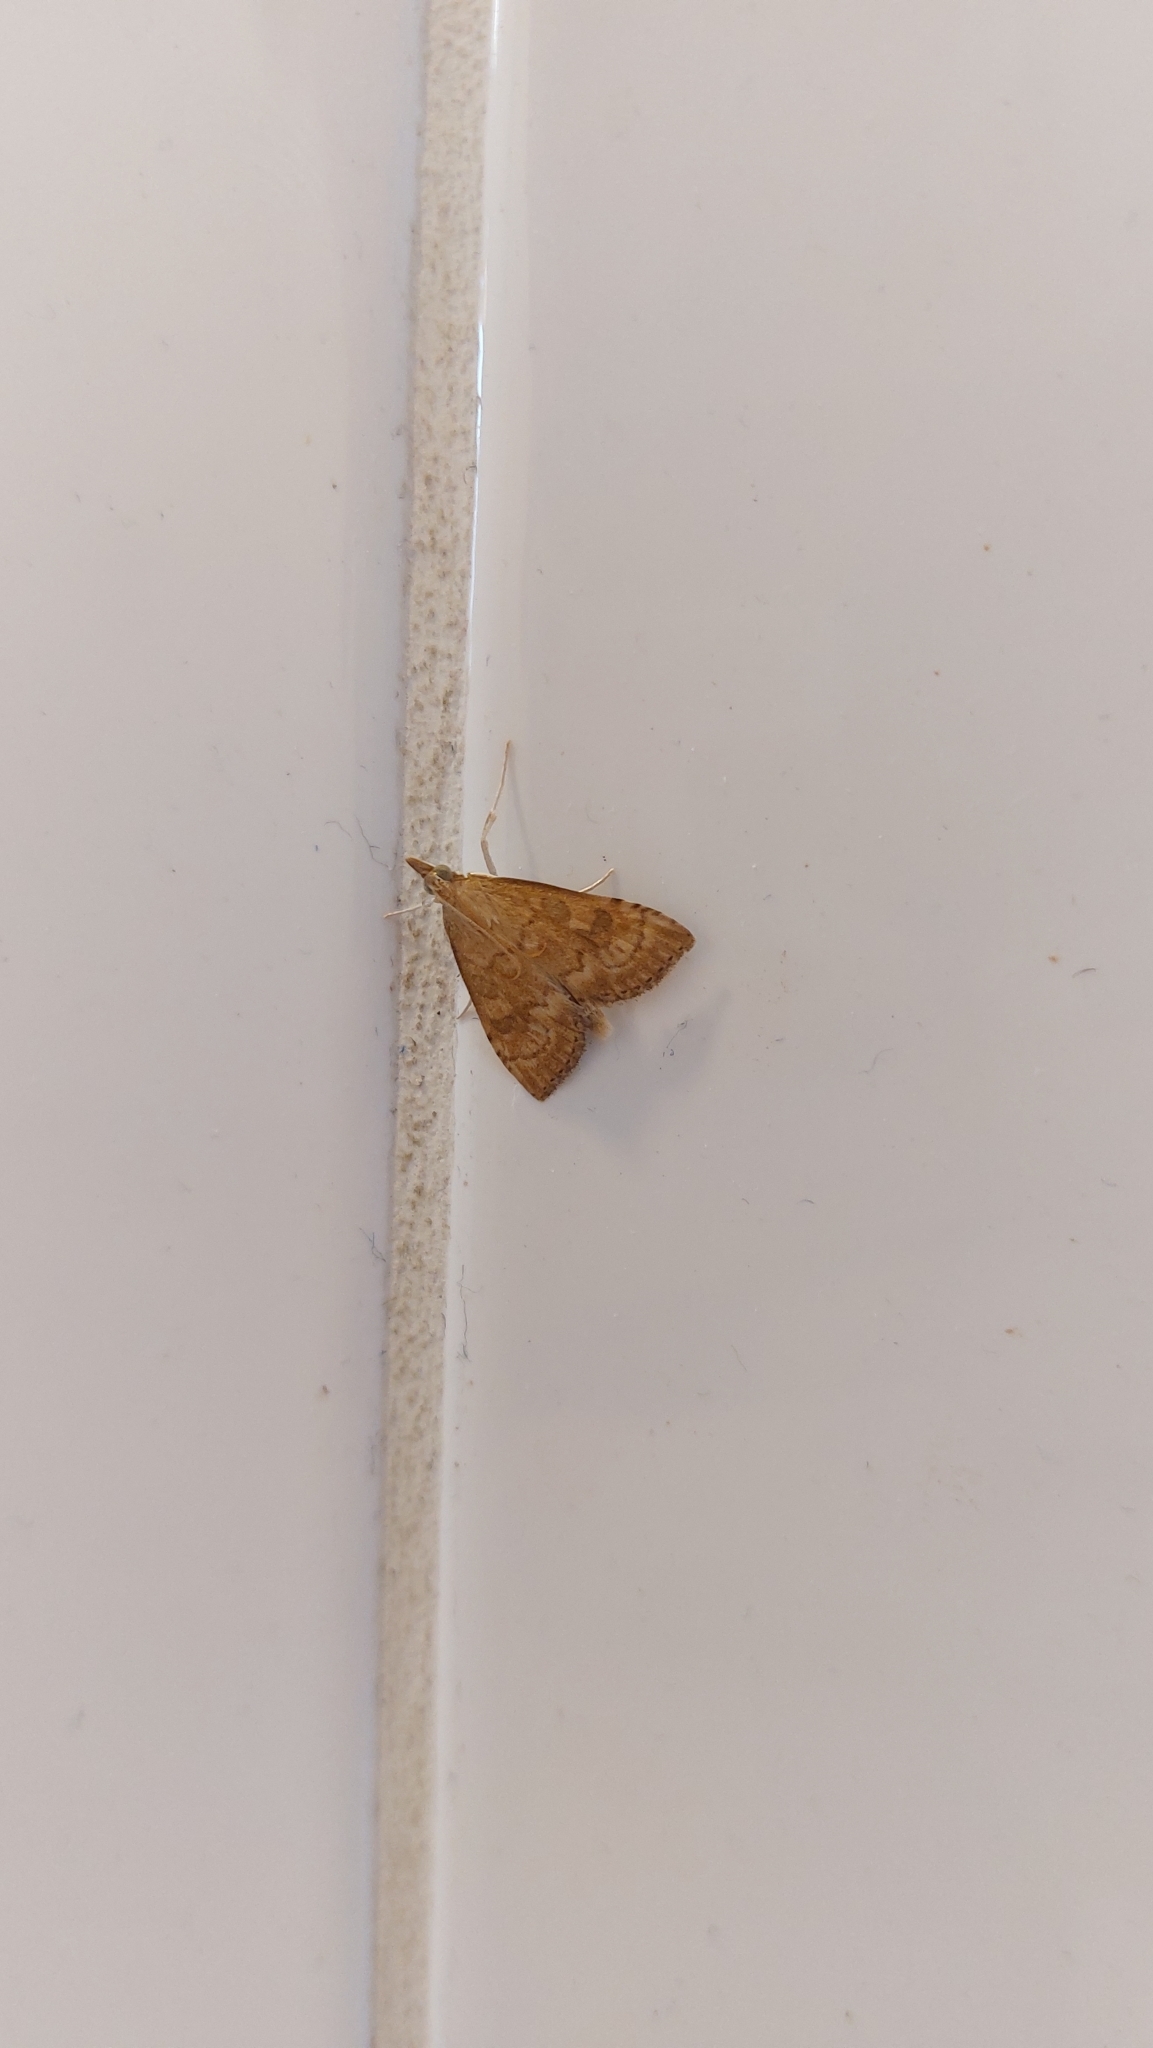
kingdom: Animalia
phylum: Arthropoda
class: Insecta
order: Lepidoptera
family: Crambidae
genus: Udea
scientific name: Udea fulvalis
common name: Fulvous pearl
